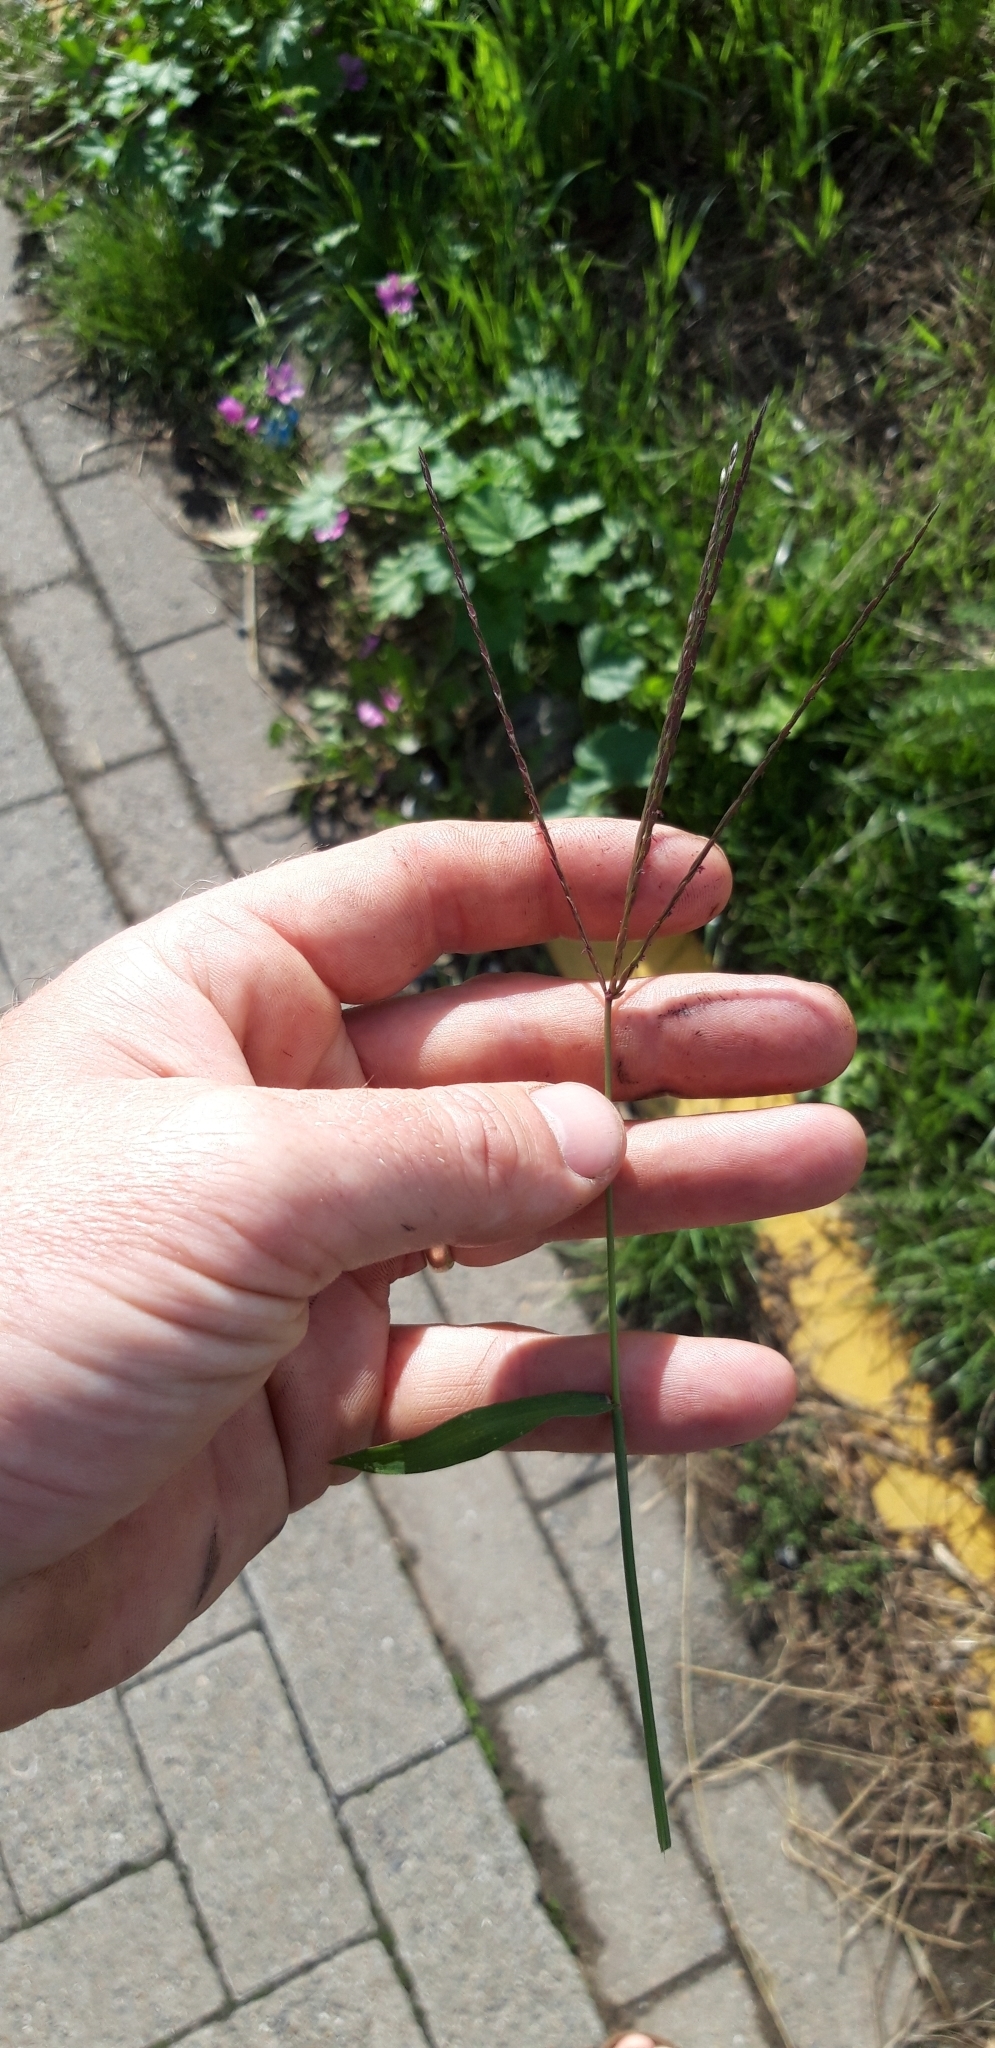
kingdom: Plantae
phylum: Tracheophyta
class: Liliopsida
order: Poales
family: Poaceae
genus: Digitaria
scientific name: Digitaria sanguinalis
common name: Hairy crabgrass
